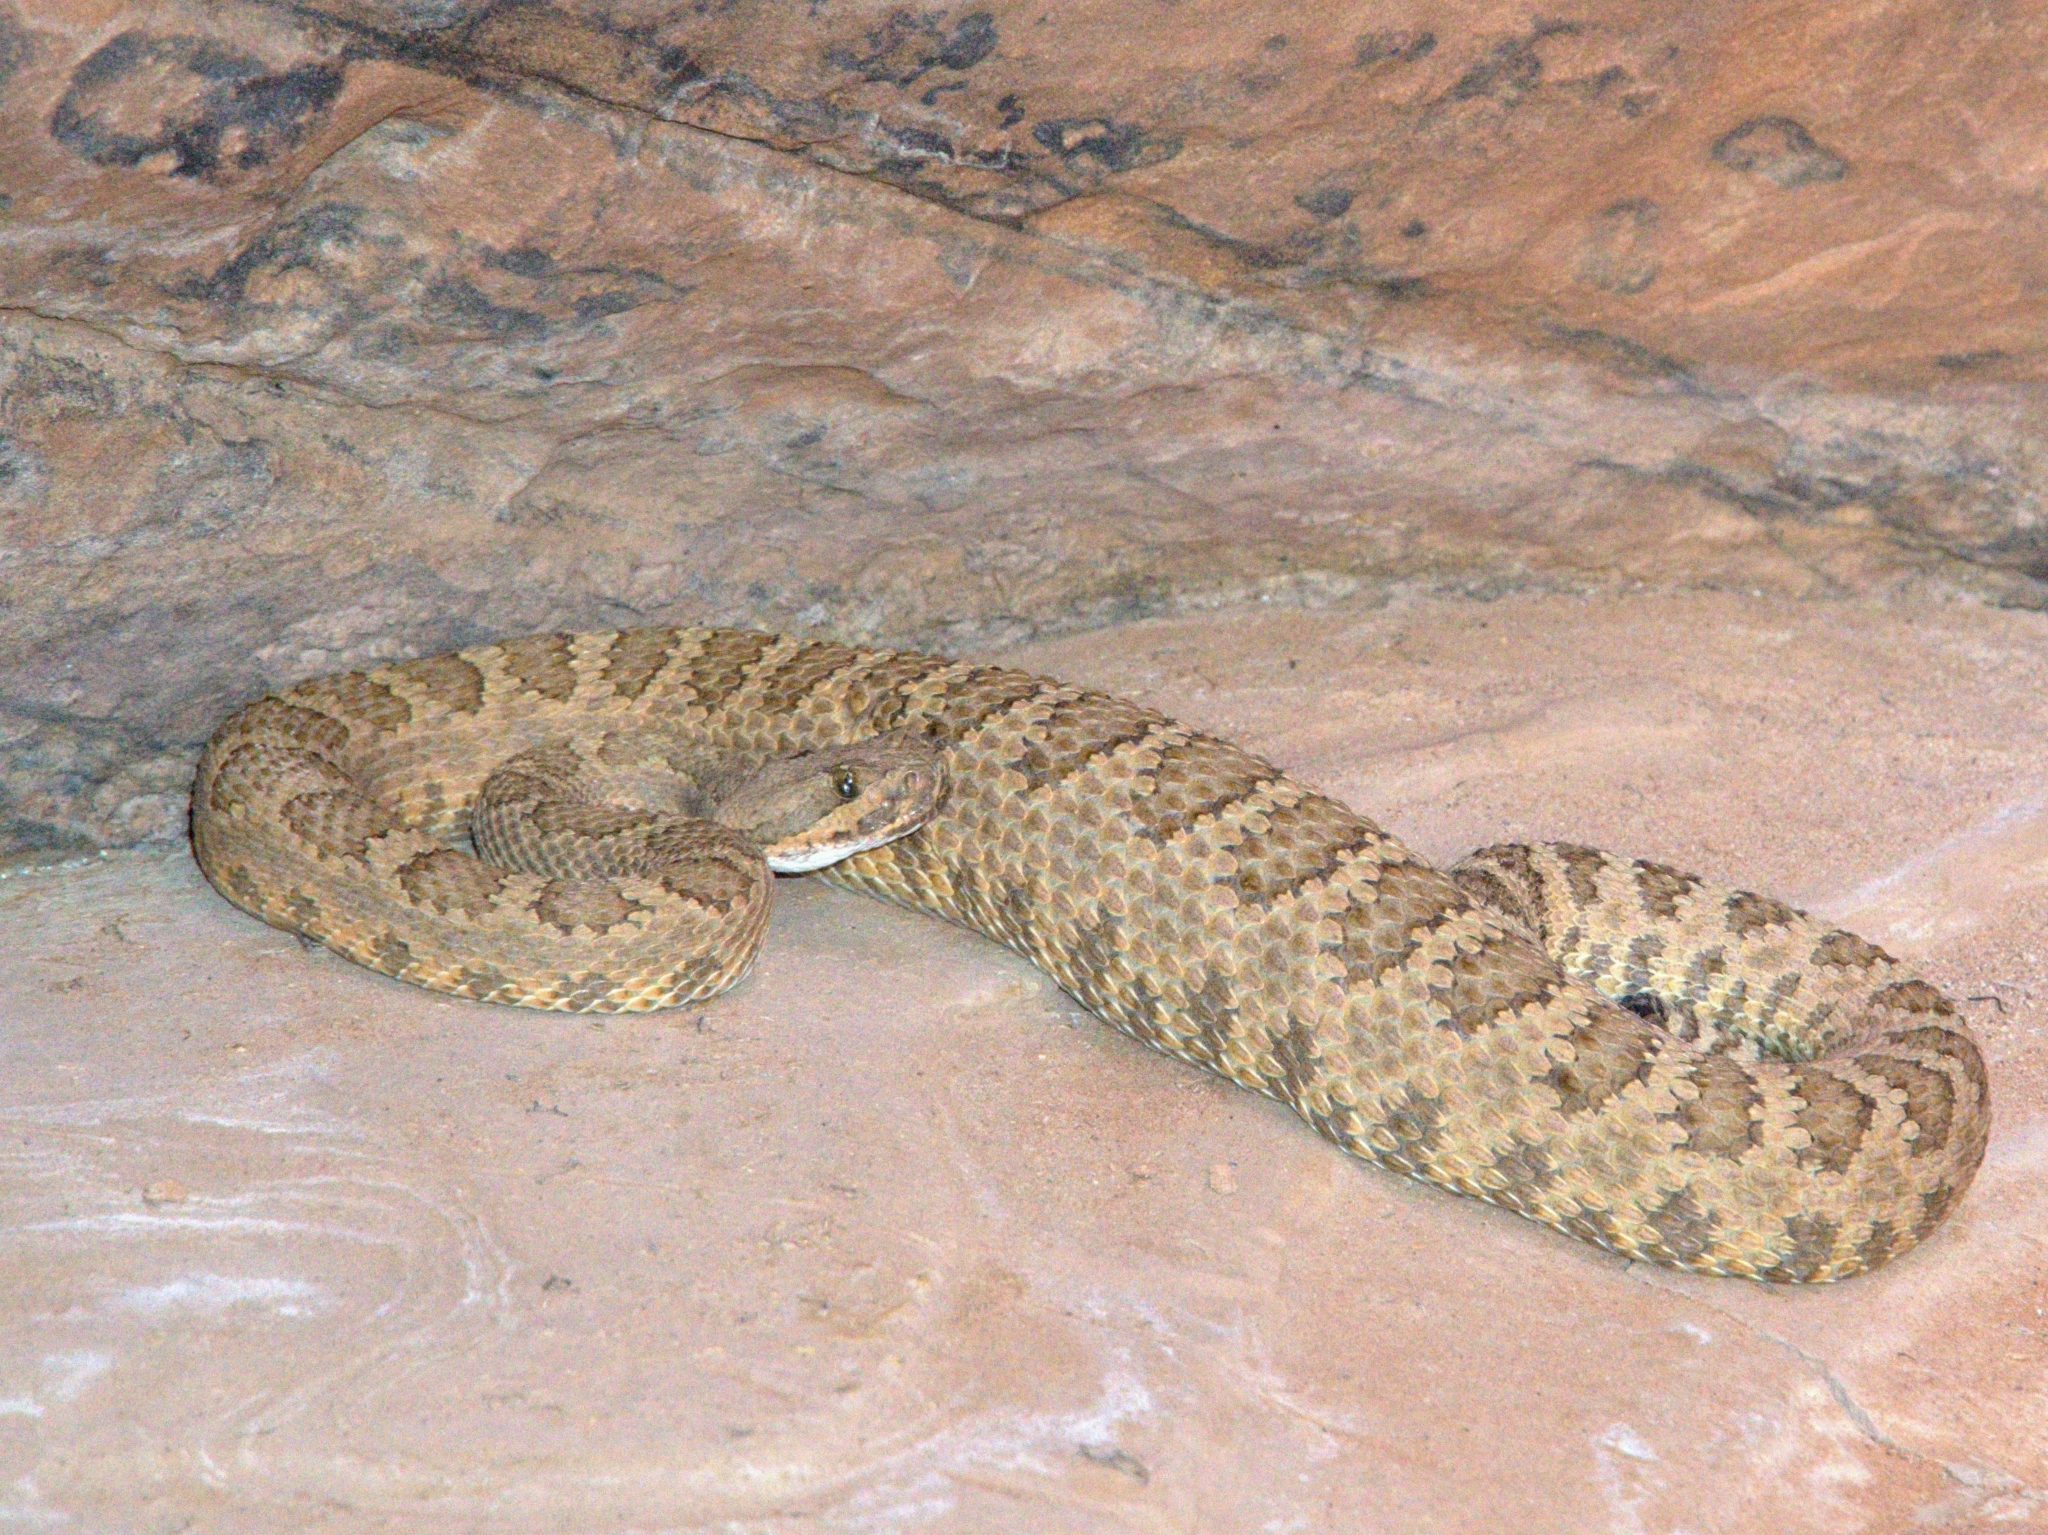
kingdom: Animalia
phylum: Chordata
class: Squamata
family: Viperidae
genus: Crotalus
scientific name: Crotalus oreganus
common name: Abyssus
